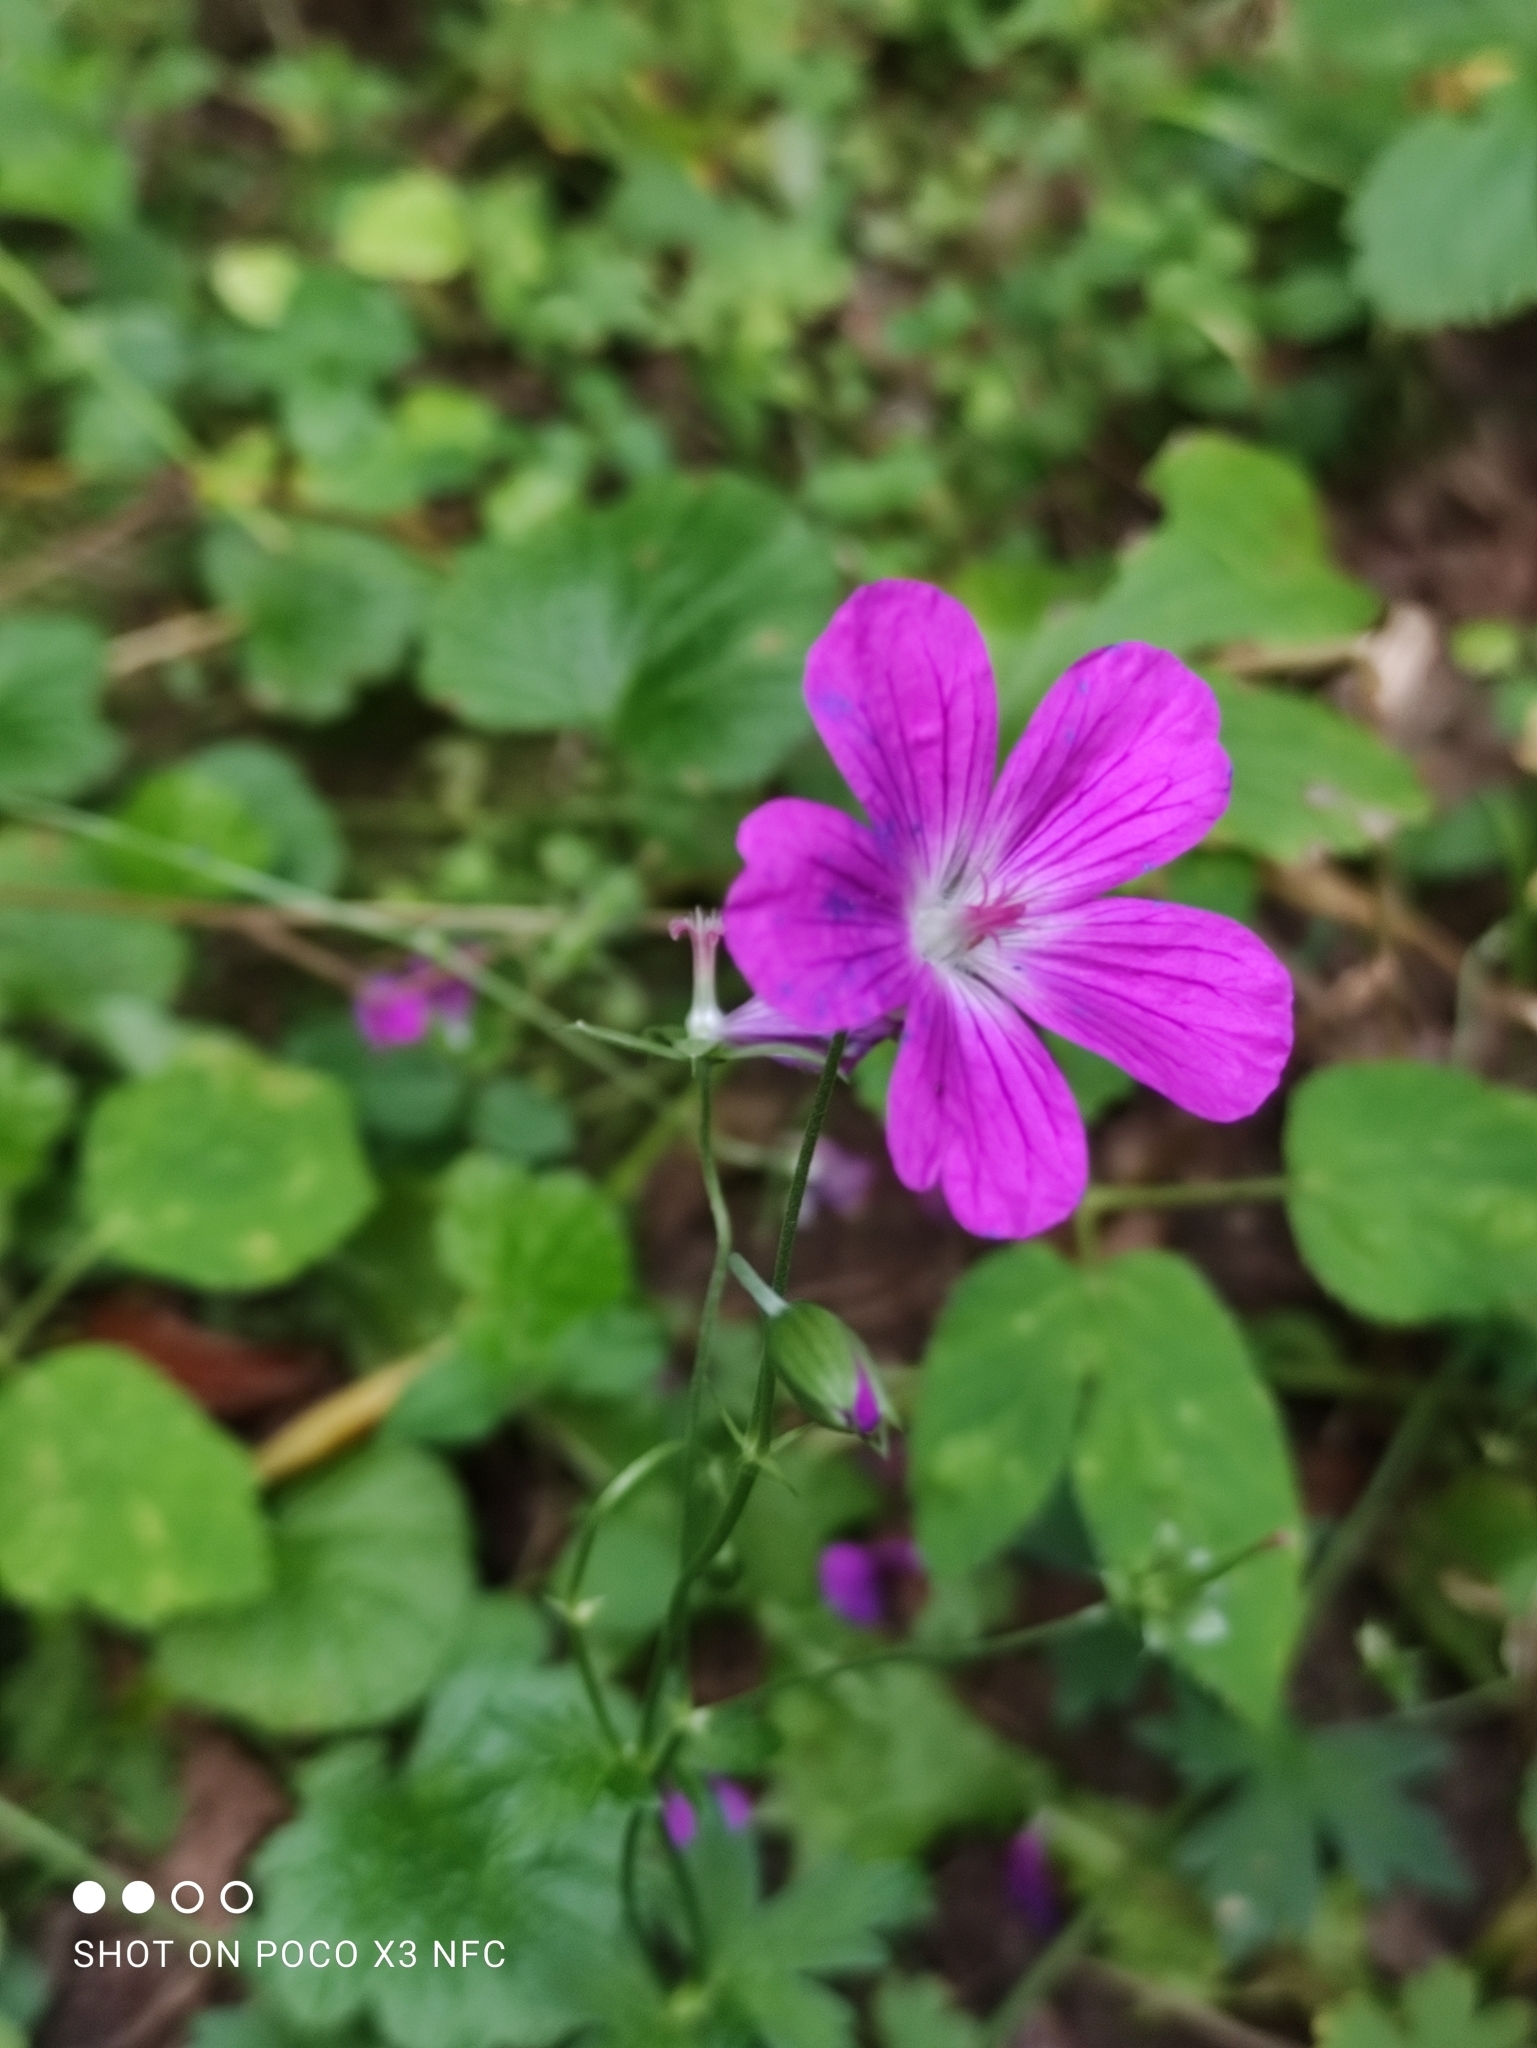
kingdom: Plantae
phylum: Tracheophyta
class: Magnoliopsida
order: Geraniales
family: Geraniaceae
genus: Geranium
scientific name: Geranium palustre
